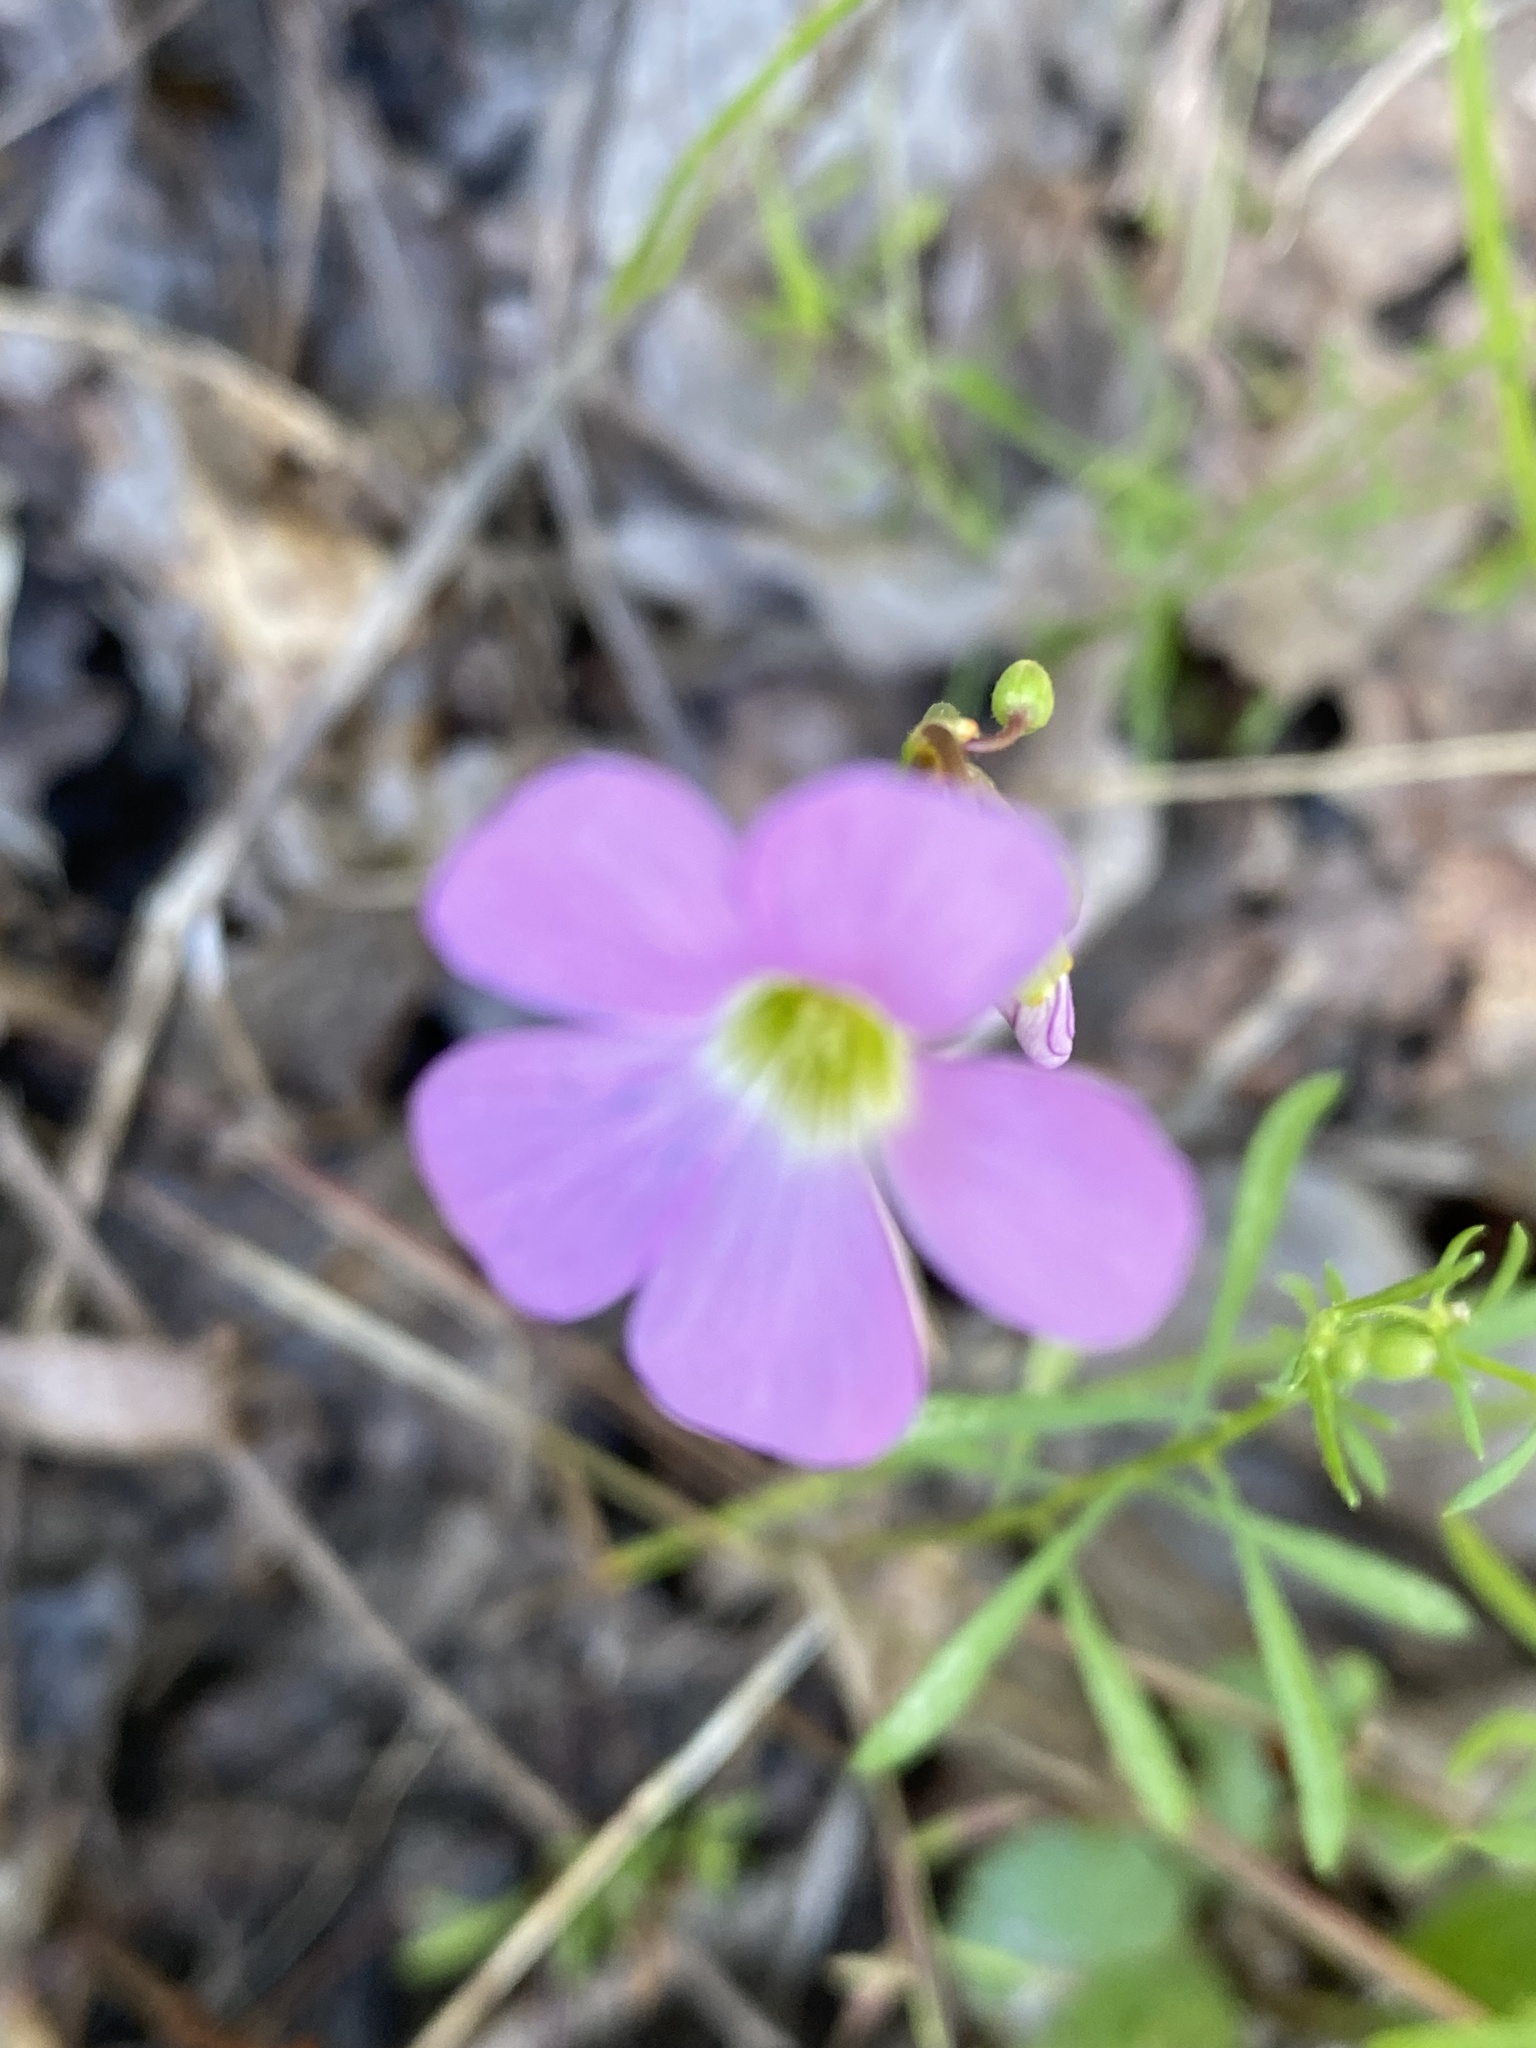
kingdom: Plantae
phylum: Tracheophyta
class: Magnoliopsida
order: Oxalidales
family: Oxalidaceae
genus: Oxalis
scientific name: Oxalis violacea
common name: Violet wood-sorrel
